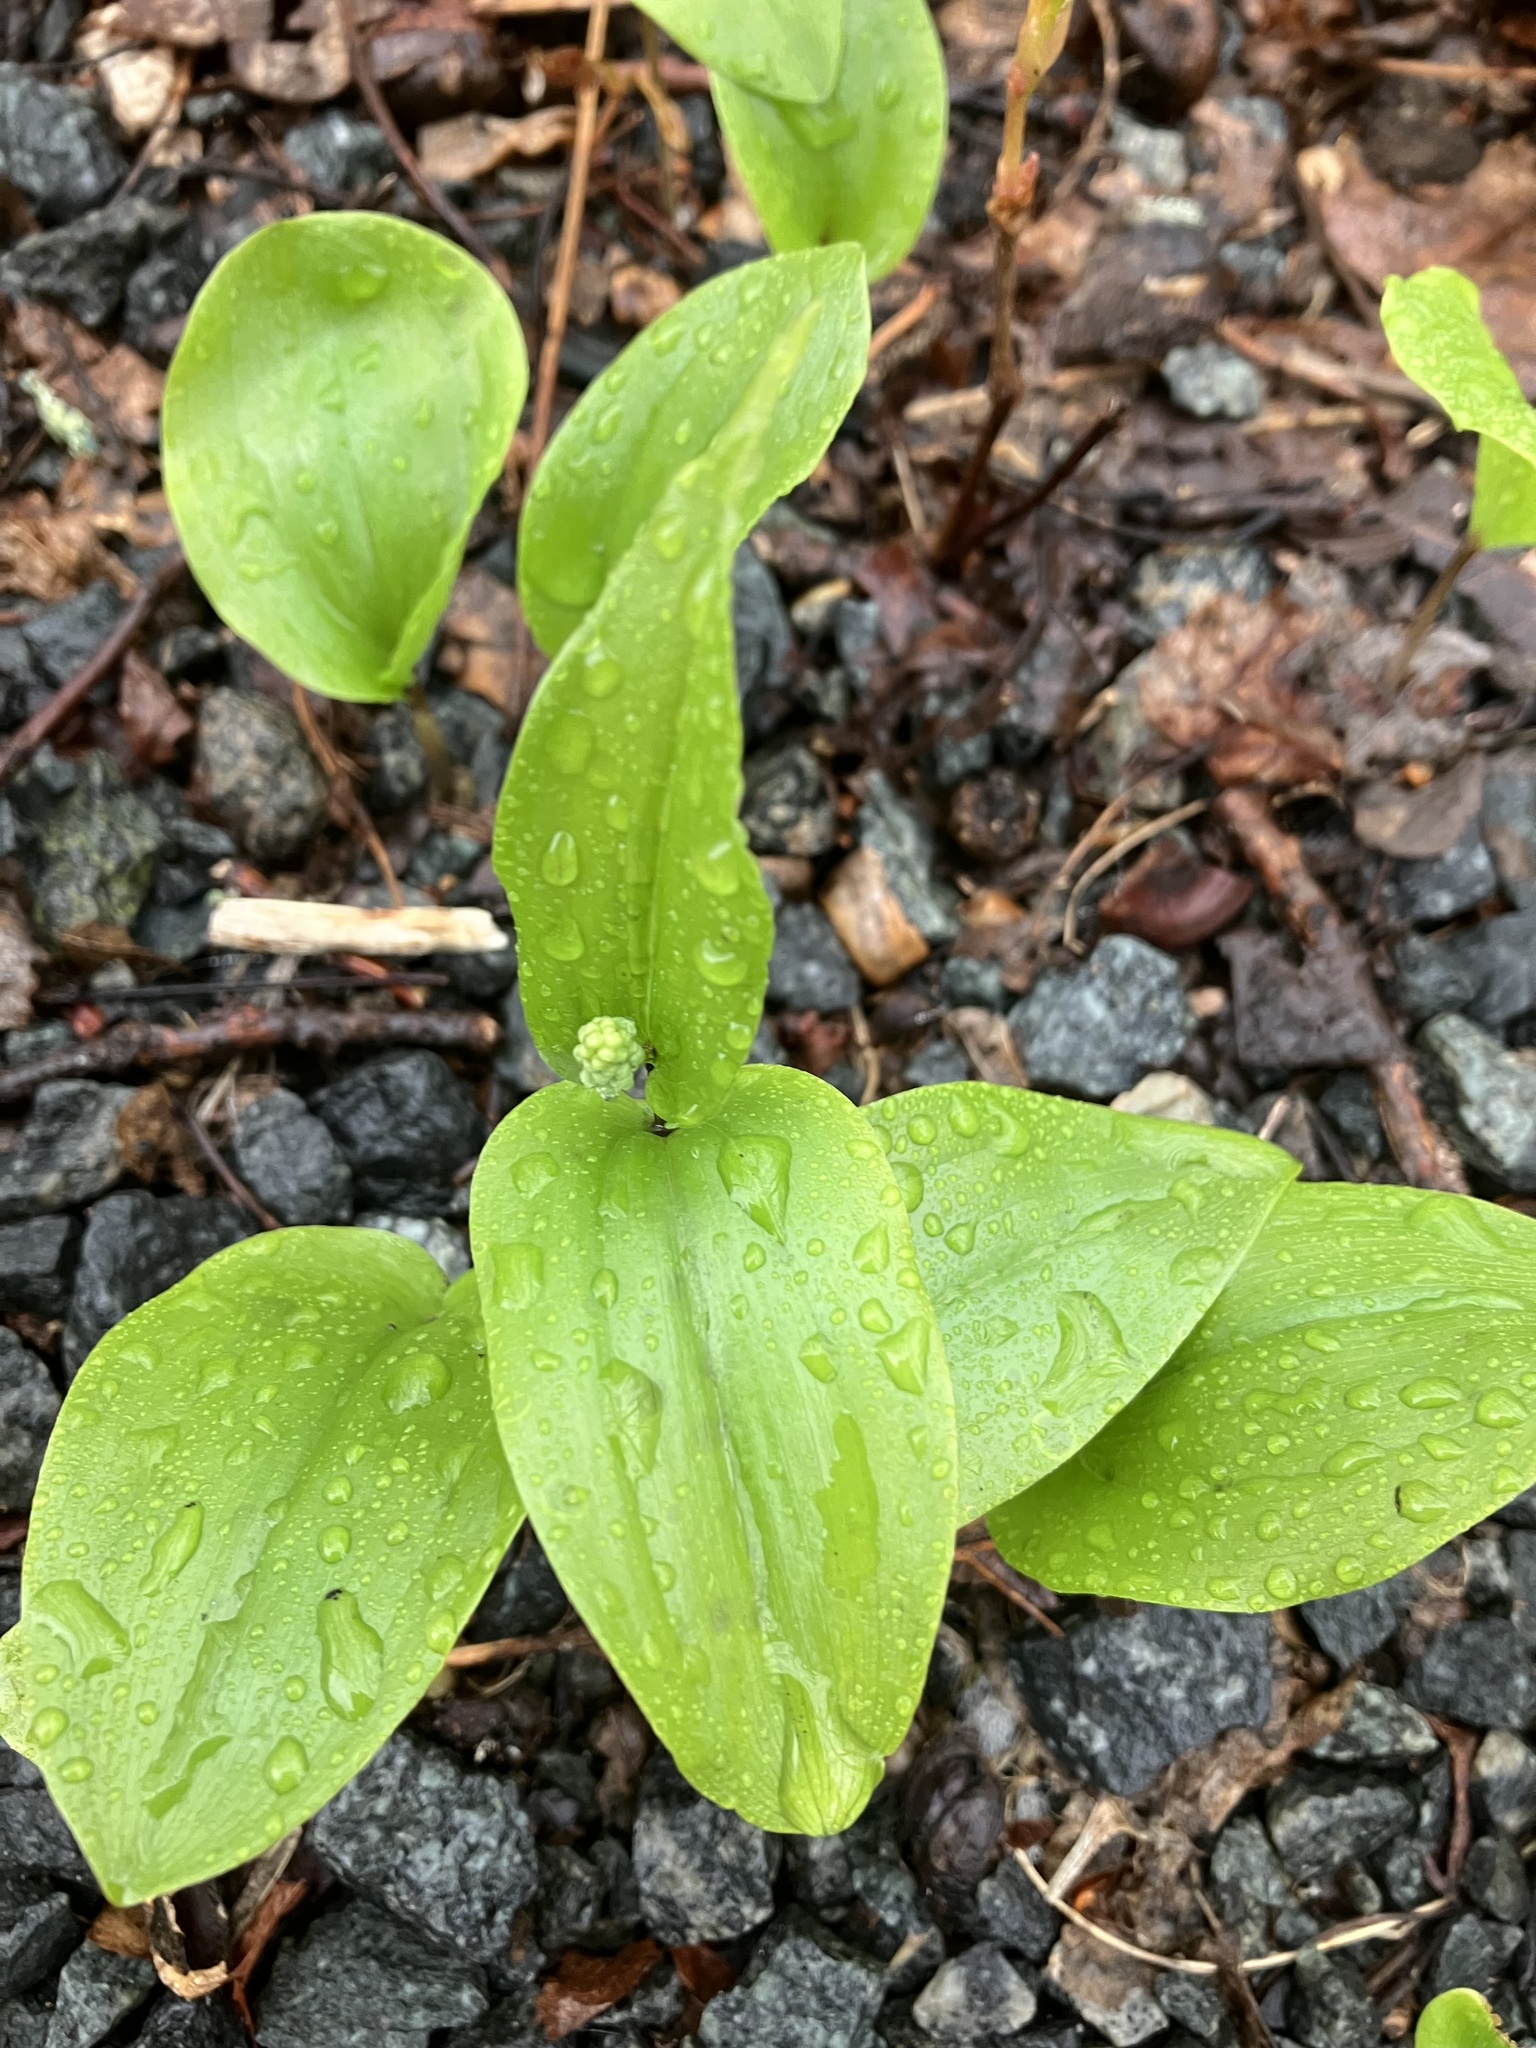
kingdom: Plantae
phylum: Tracheophyta
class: Liliopsida
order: Asparagales
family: Asparagaceae
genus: Maianthemum
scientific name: Maianthemum canadense
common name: False lily-of-the-valley
